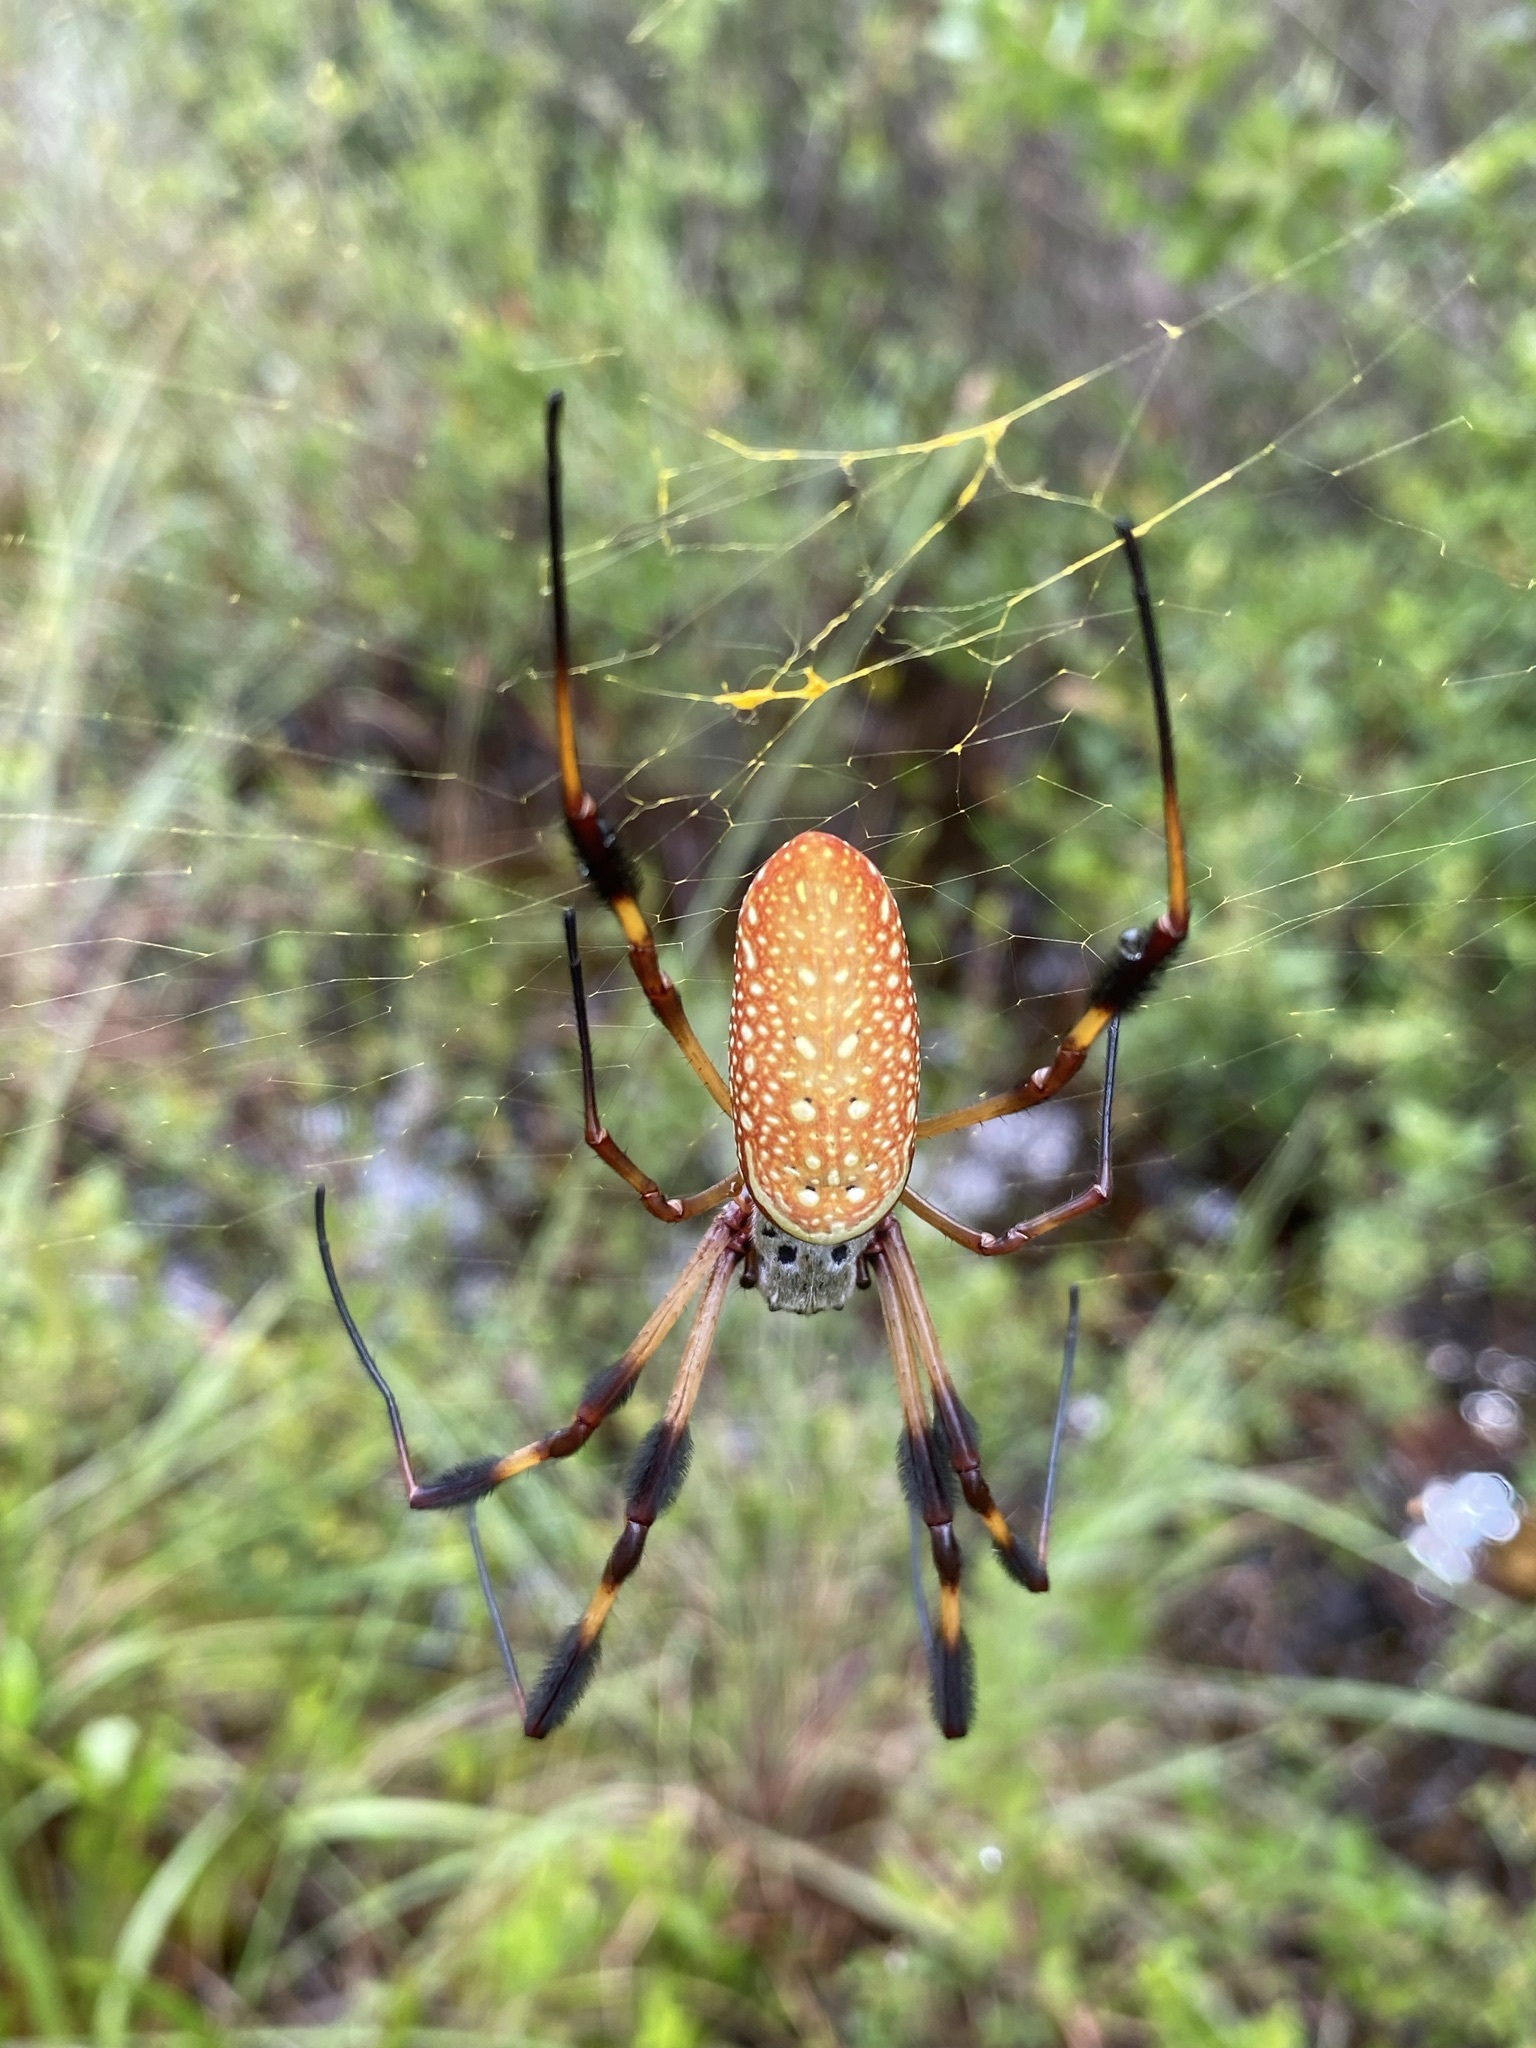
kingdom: Animalia
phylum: Arthropoda
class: Arachnida
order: Araneae
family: Araneidae
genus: Trichonephila
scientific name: Trichonephila clavipes
